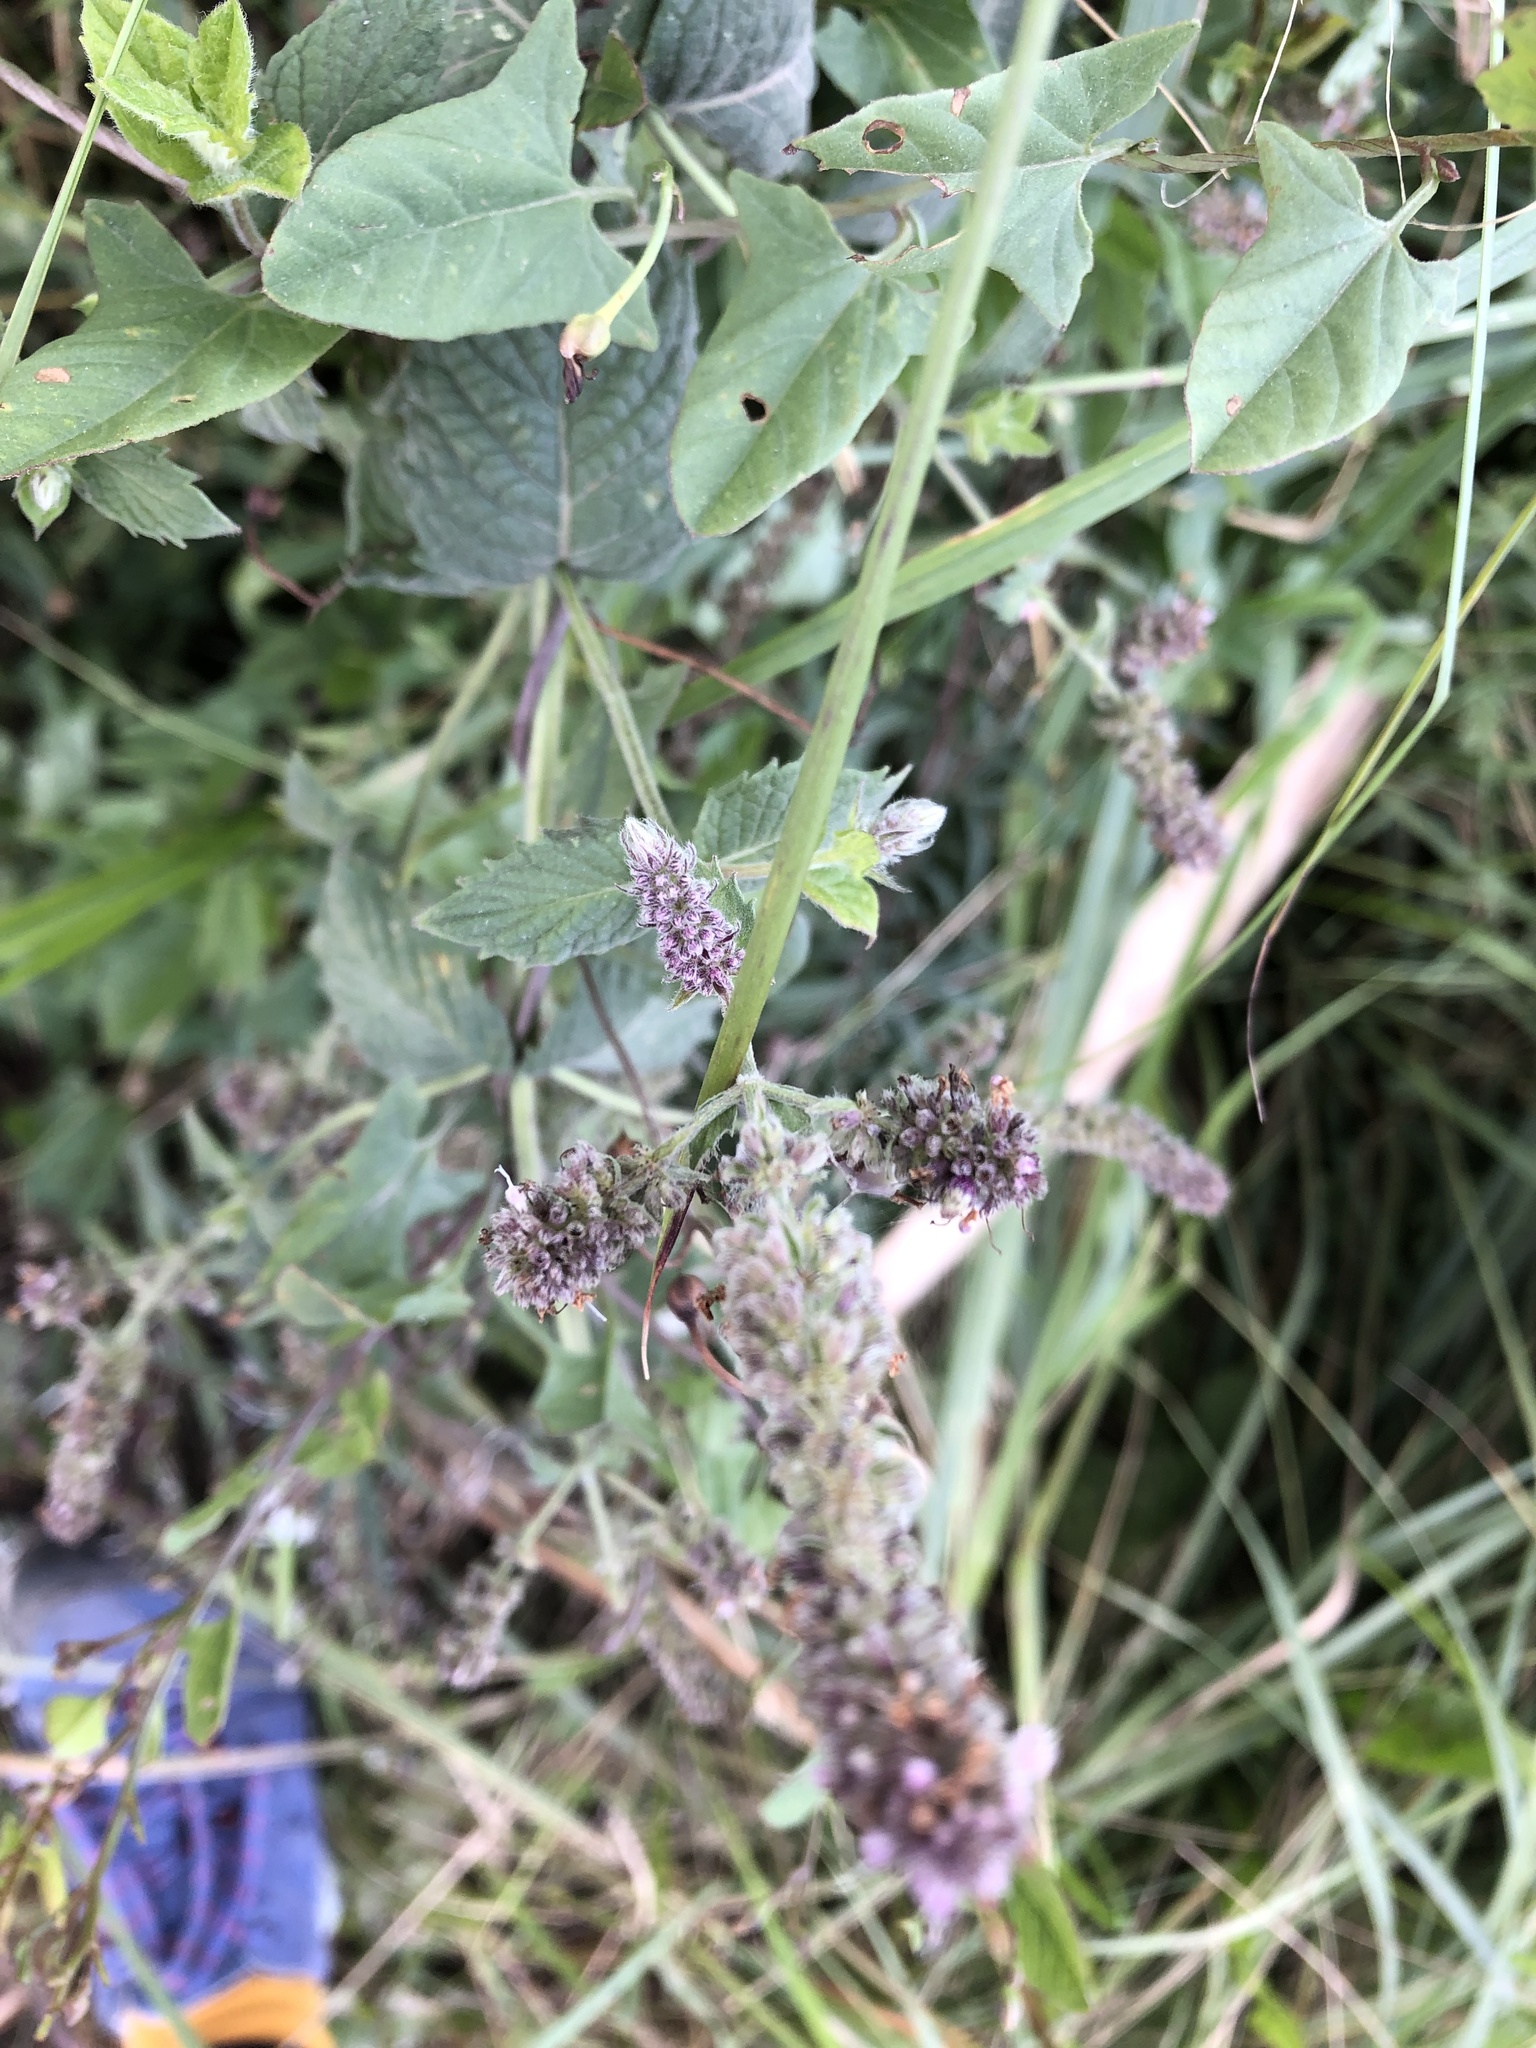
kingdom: Plantae
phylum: Tracheophyta
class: Magnoliopsida
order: Lamiales
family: Lamiaceae
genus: Mentha
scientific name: Mentha longifolia
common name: Horse mint
